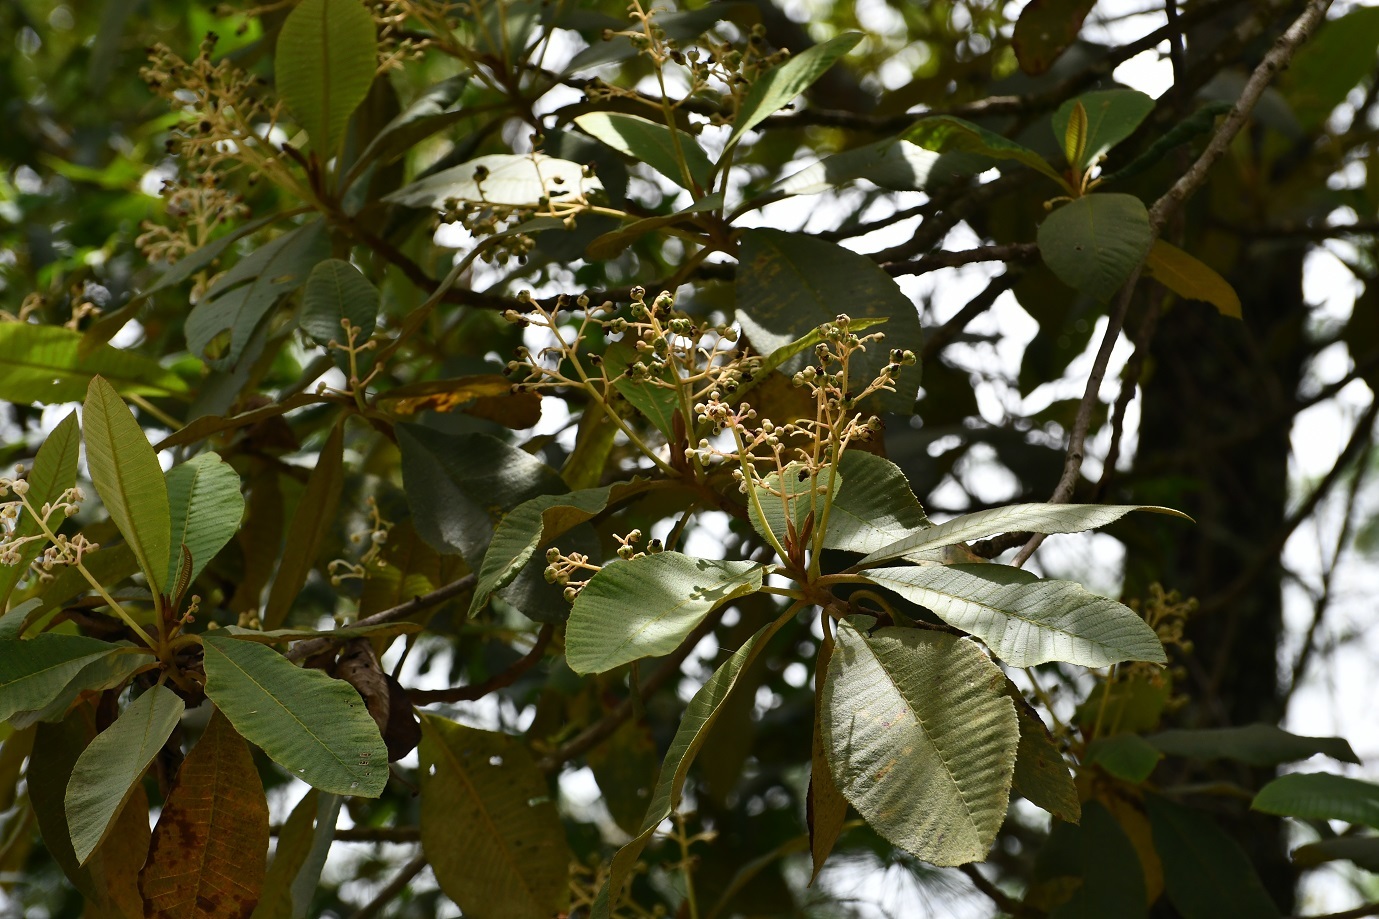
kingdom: Plantae
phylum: Tracheophyta
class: Magnoliopsida
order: Ericales
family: Actinidiaceae
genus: Saurauia
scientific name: Saurauia scabrida
